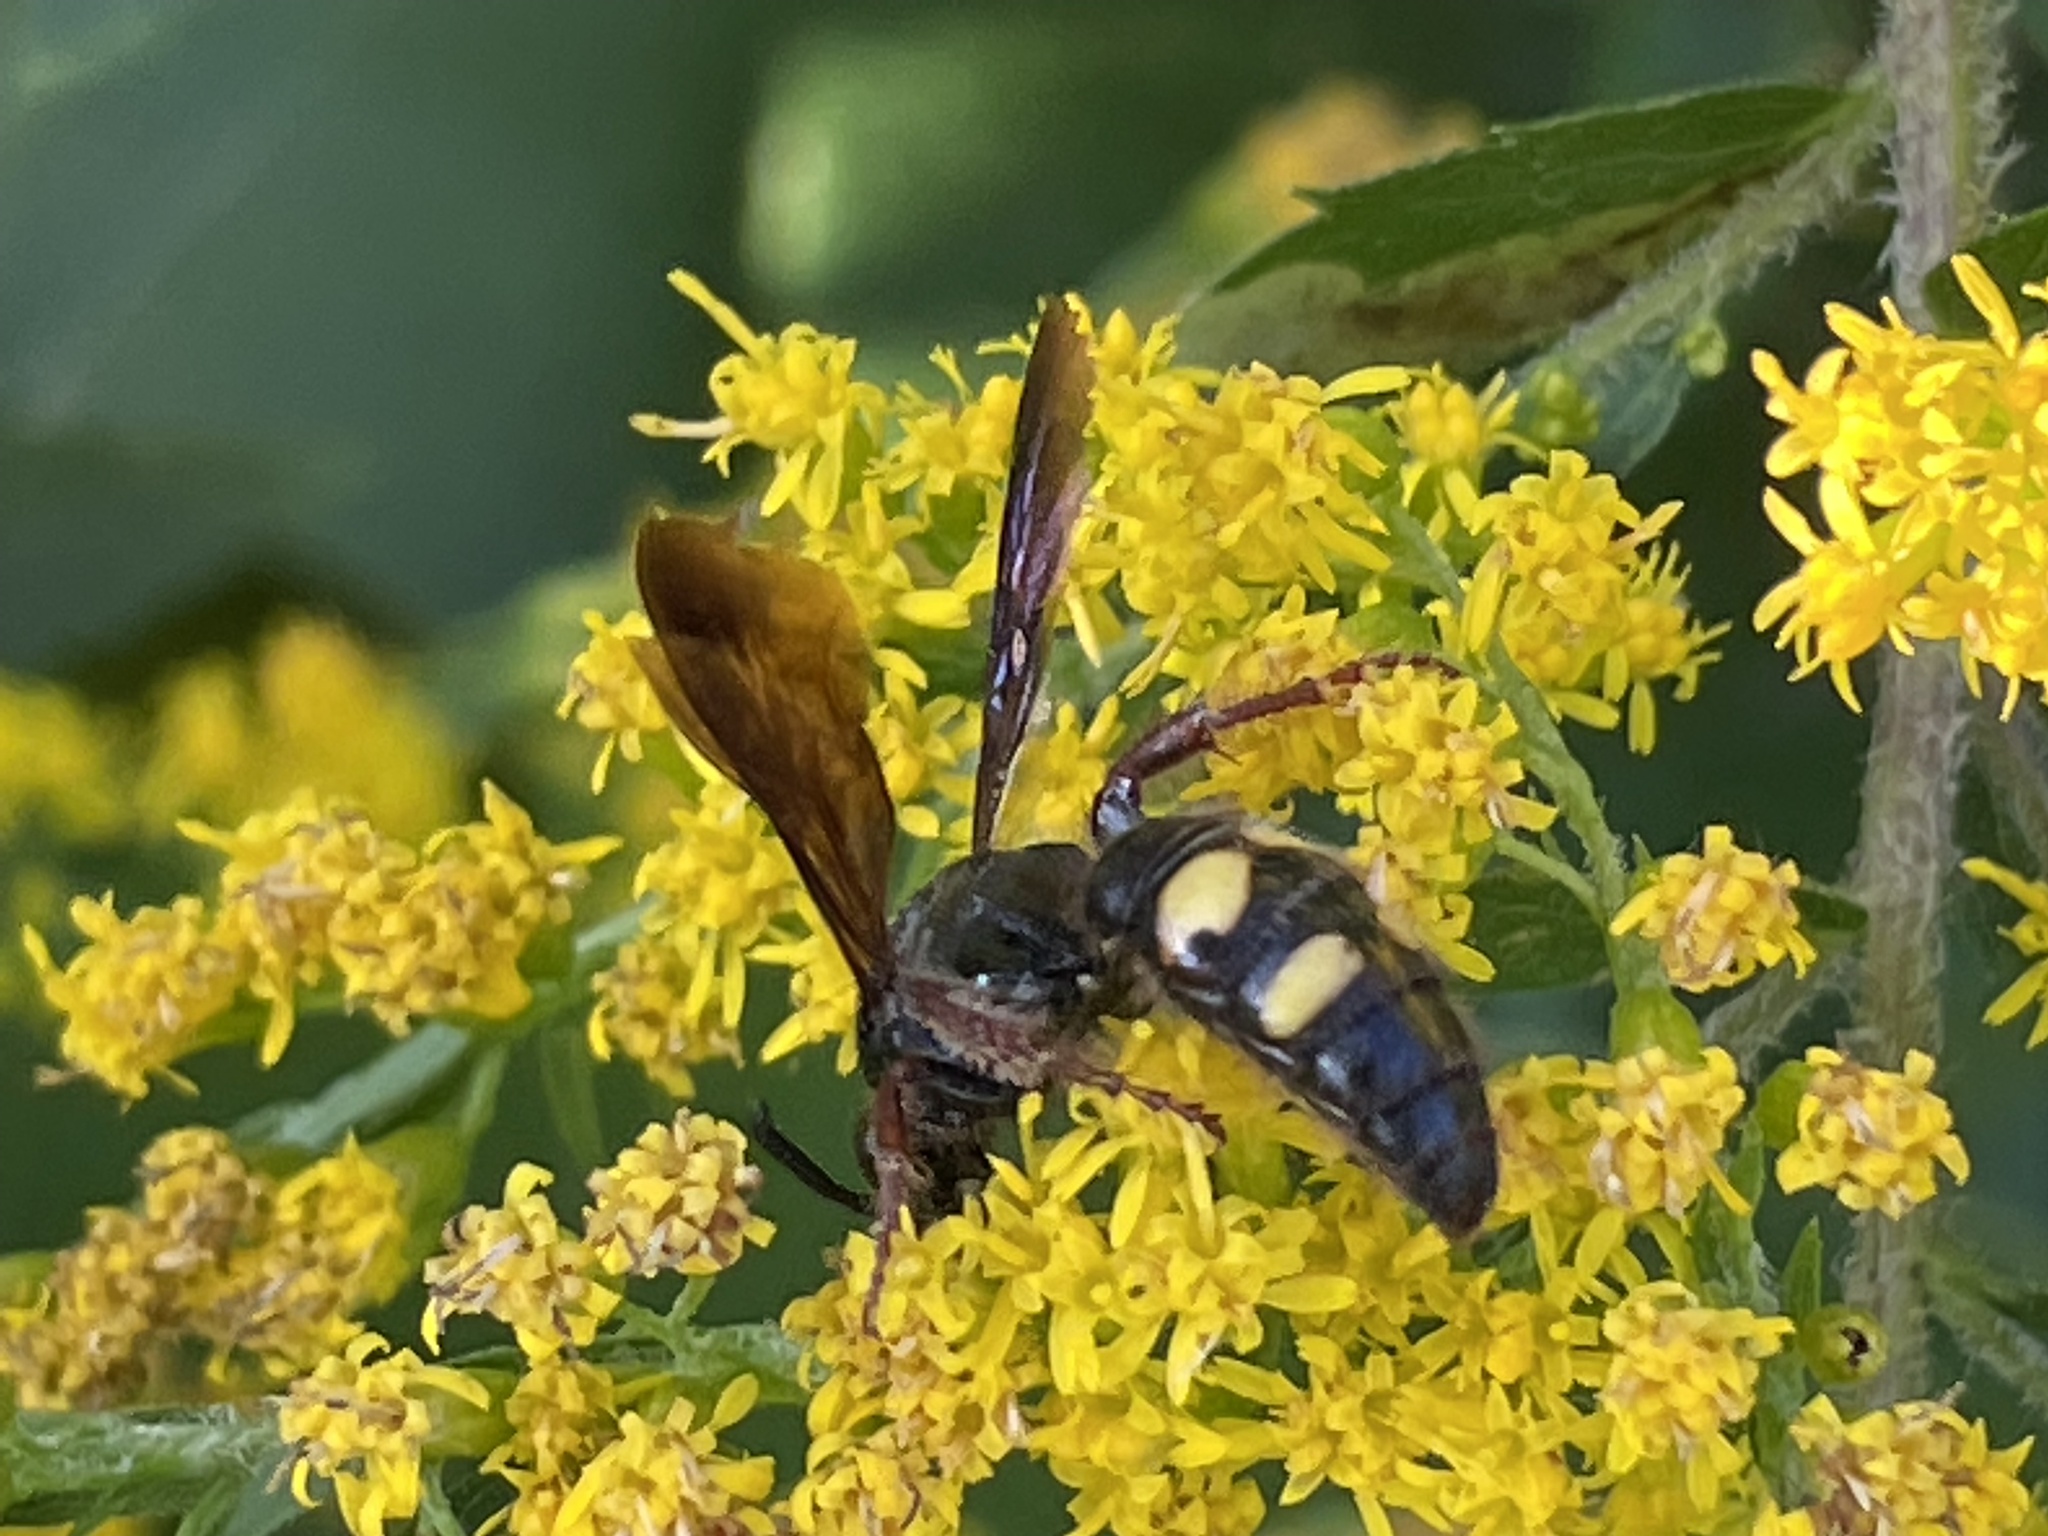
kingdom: Animalia
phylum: Arthropoda
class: Insecta
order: Hymenoptera
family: Scoliidae
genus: Scolia
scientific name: Scolia nobilitata
